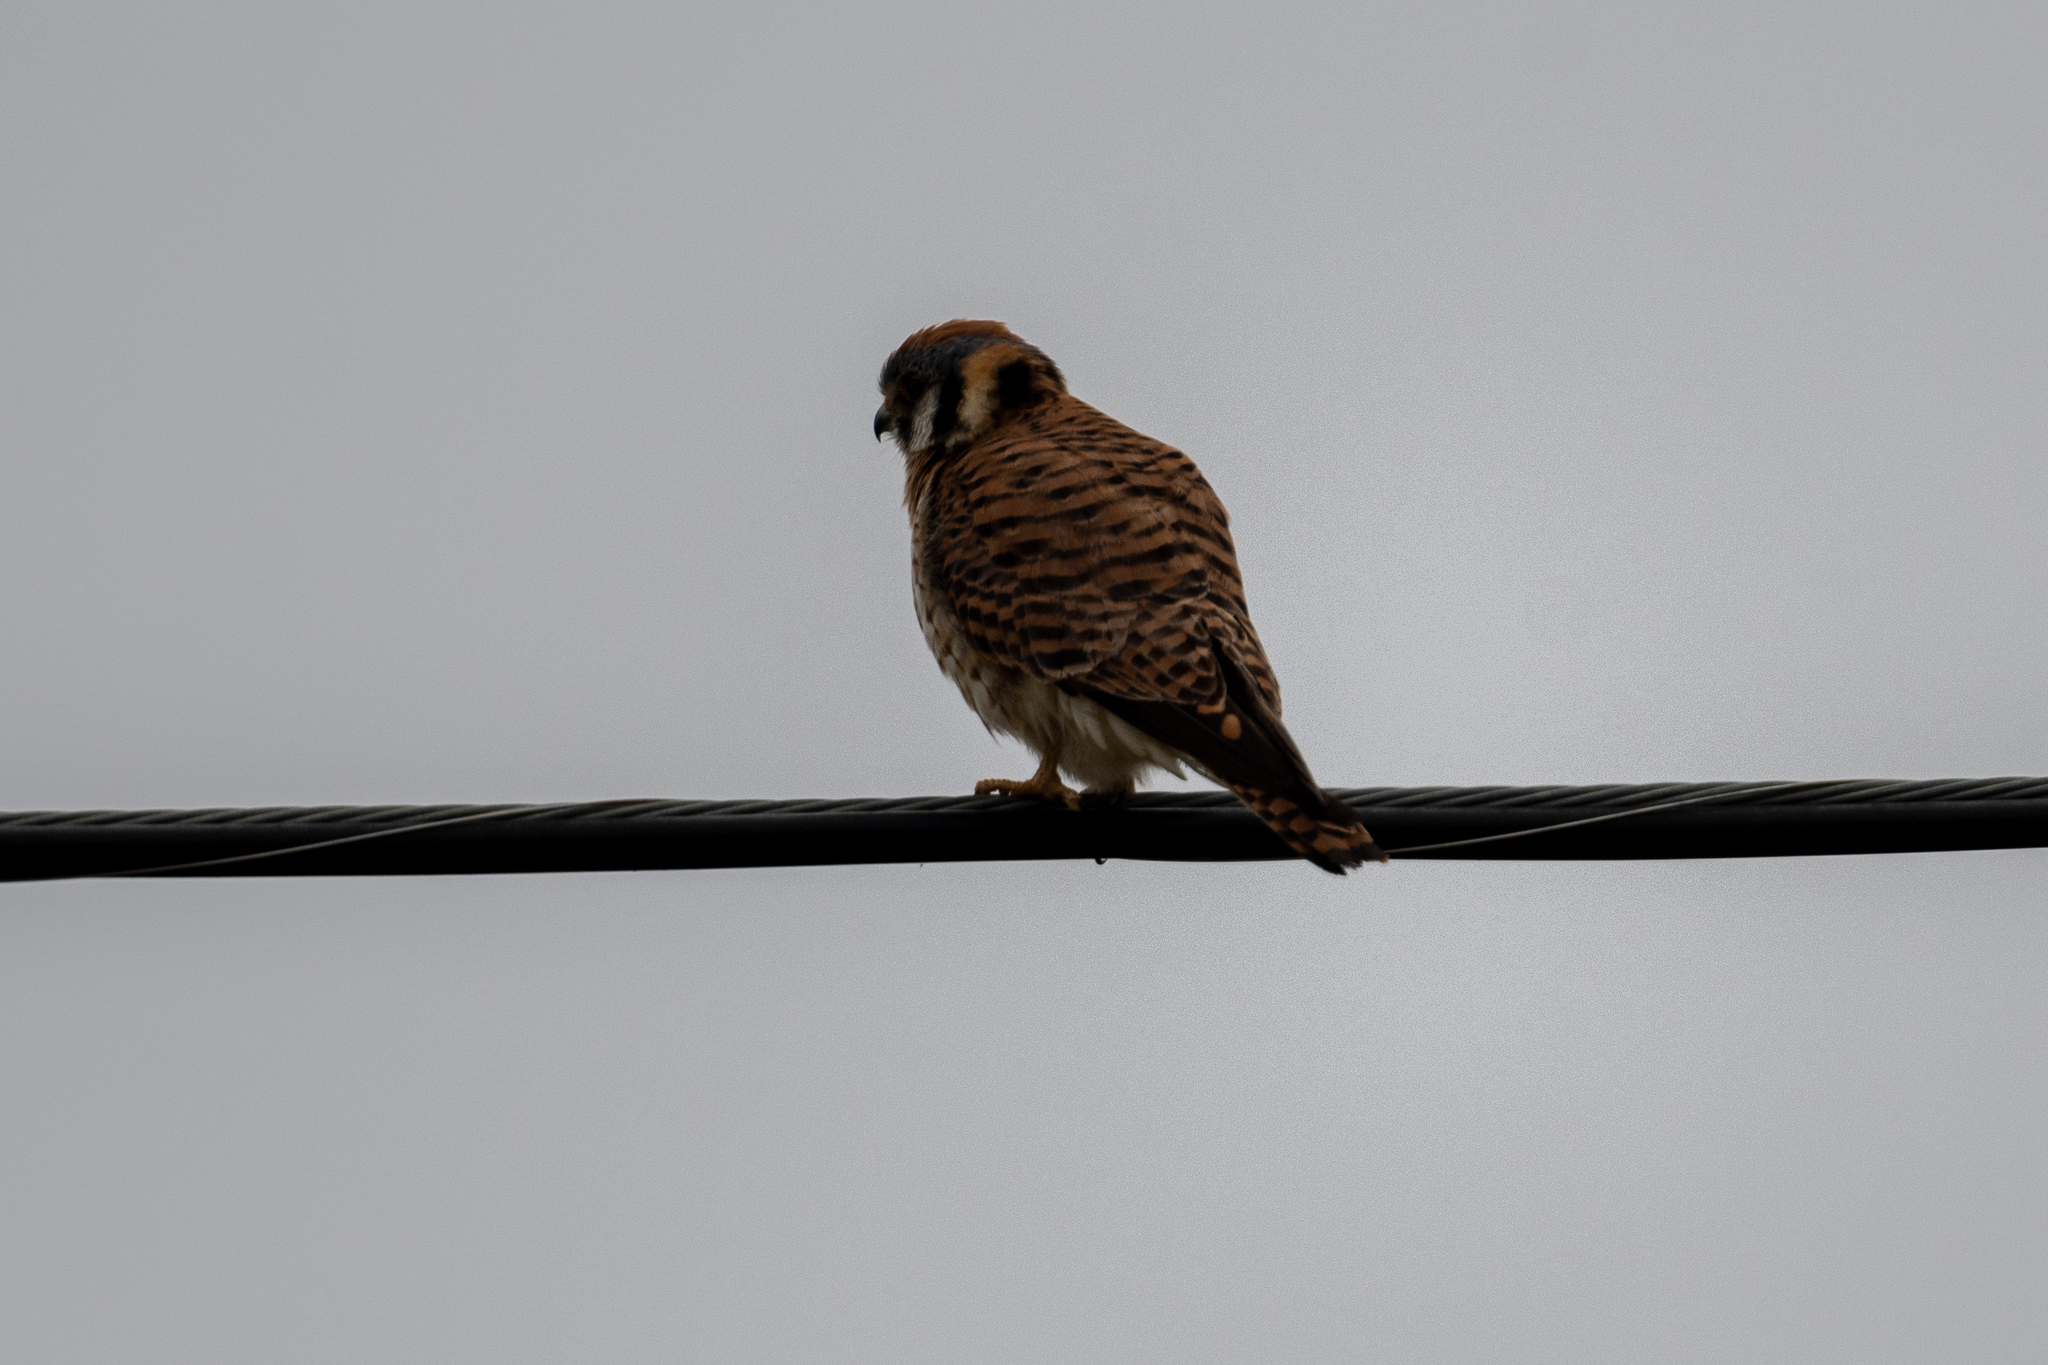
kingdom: Animalia
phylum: Chordata
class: Aves
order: Falconiformes
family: Falconidae
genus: Falco
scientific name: Falco sparverius
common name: American kestrel
